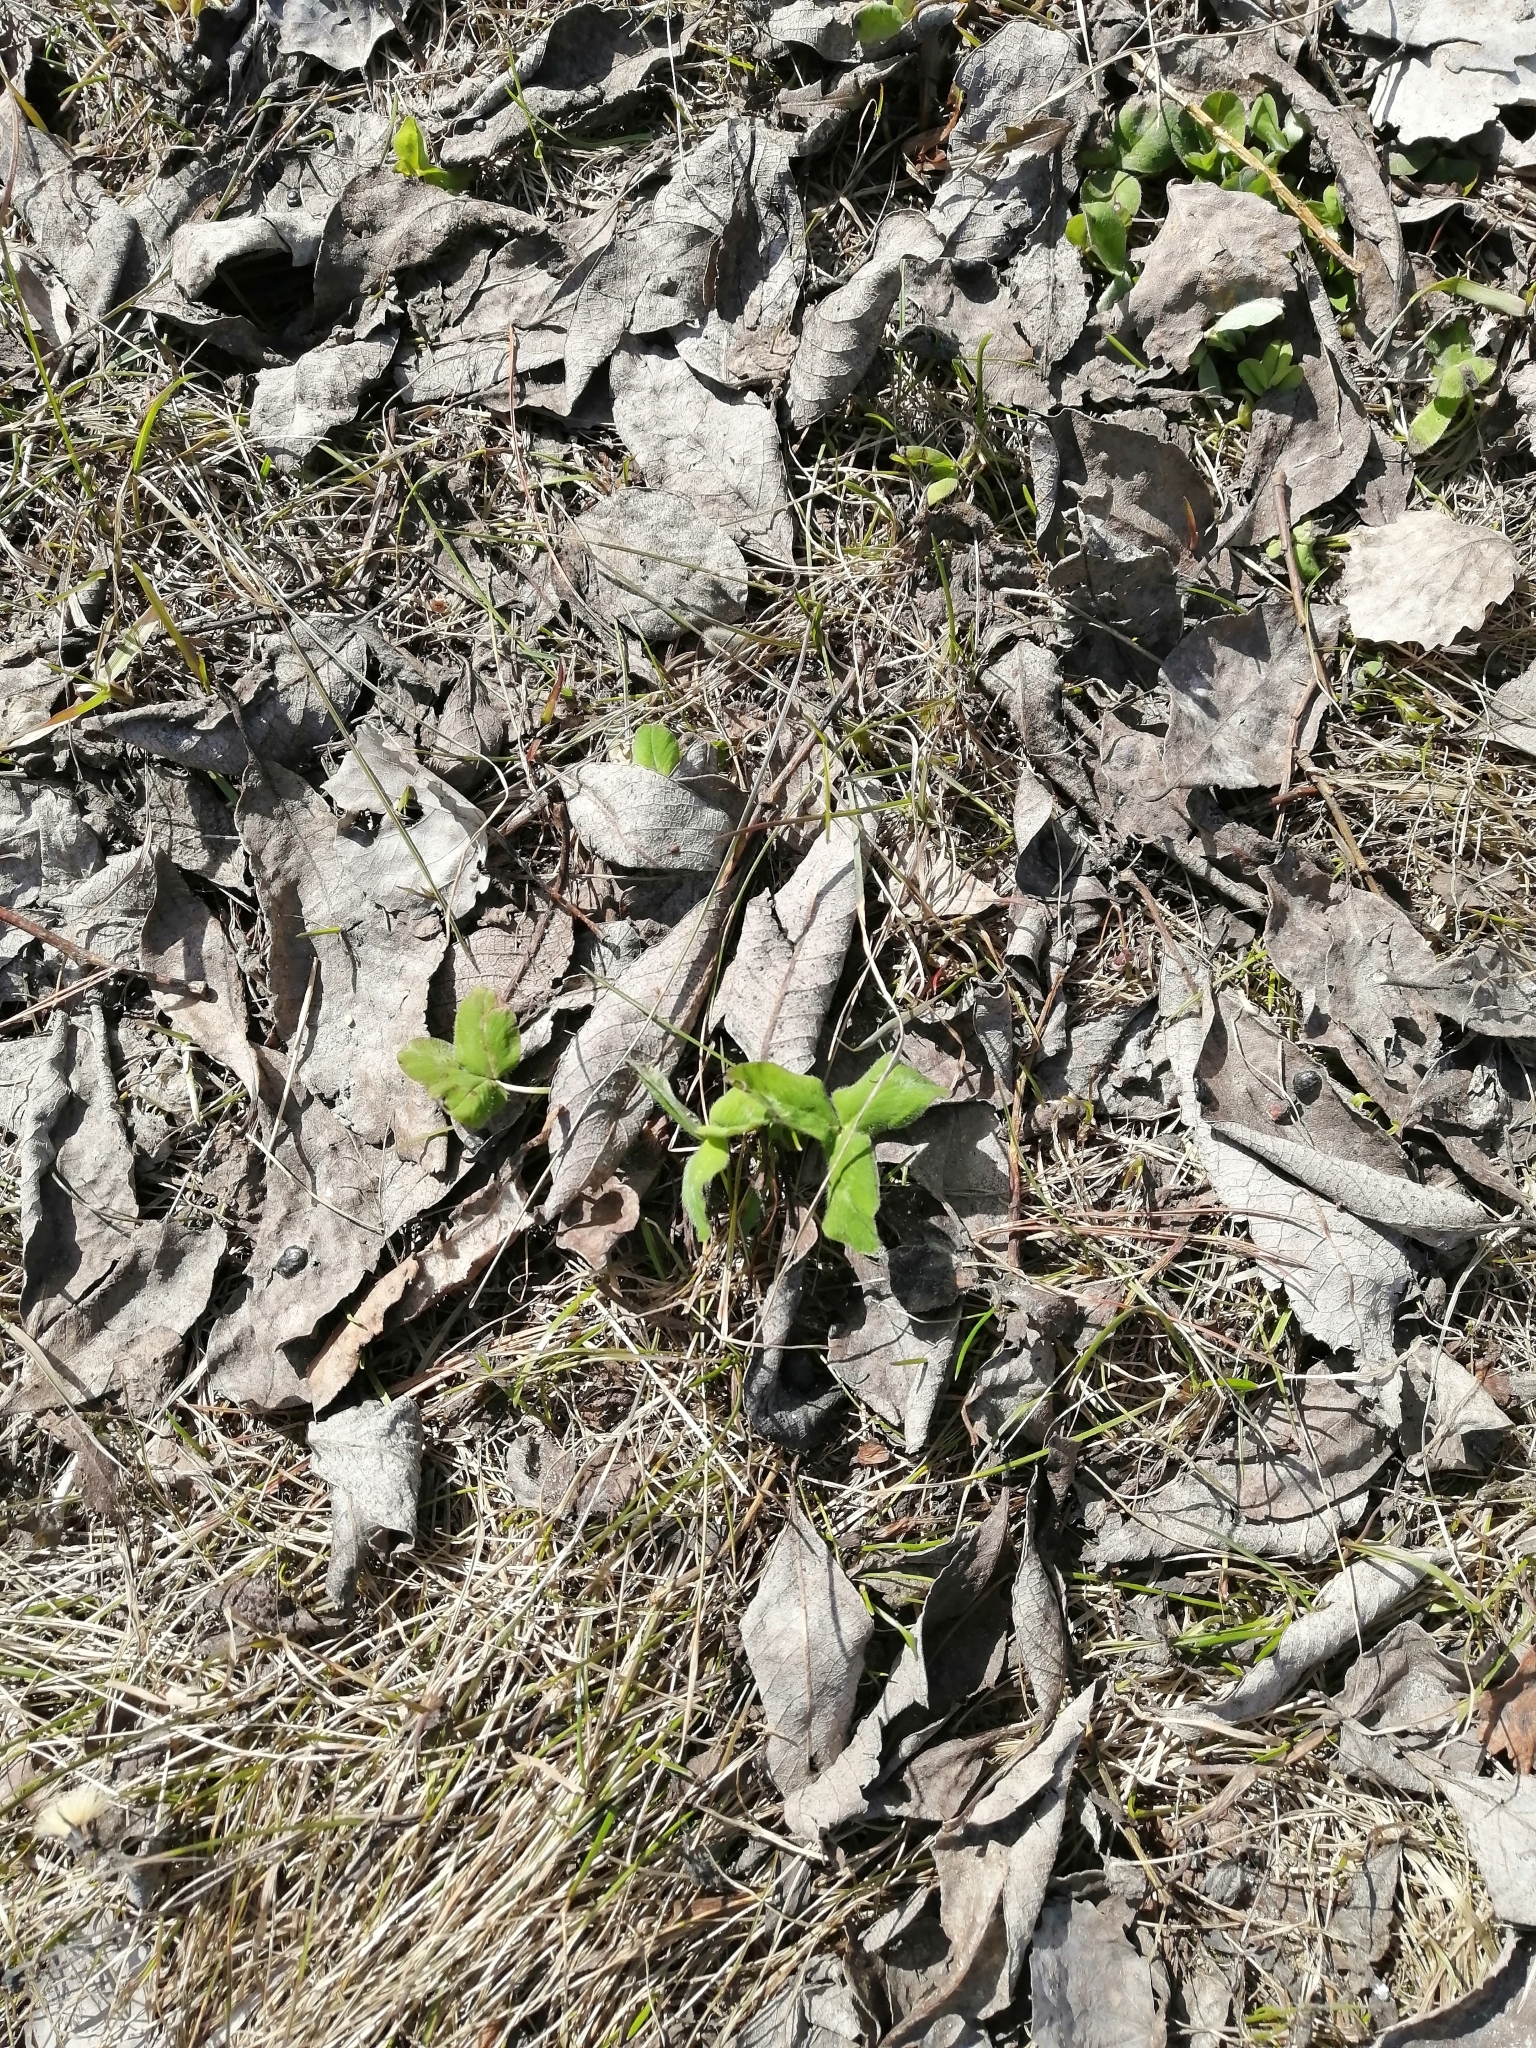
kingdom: Plantae
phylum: Tracheophyta
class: Magnoliopsida
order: Fabales
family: Fabaceae
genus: Trifolium
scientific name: Trifolium pratense
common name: Red clover
